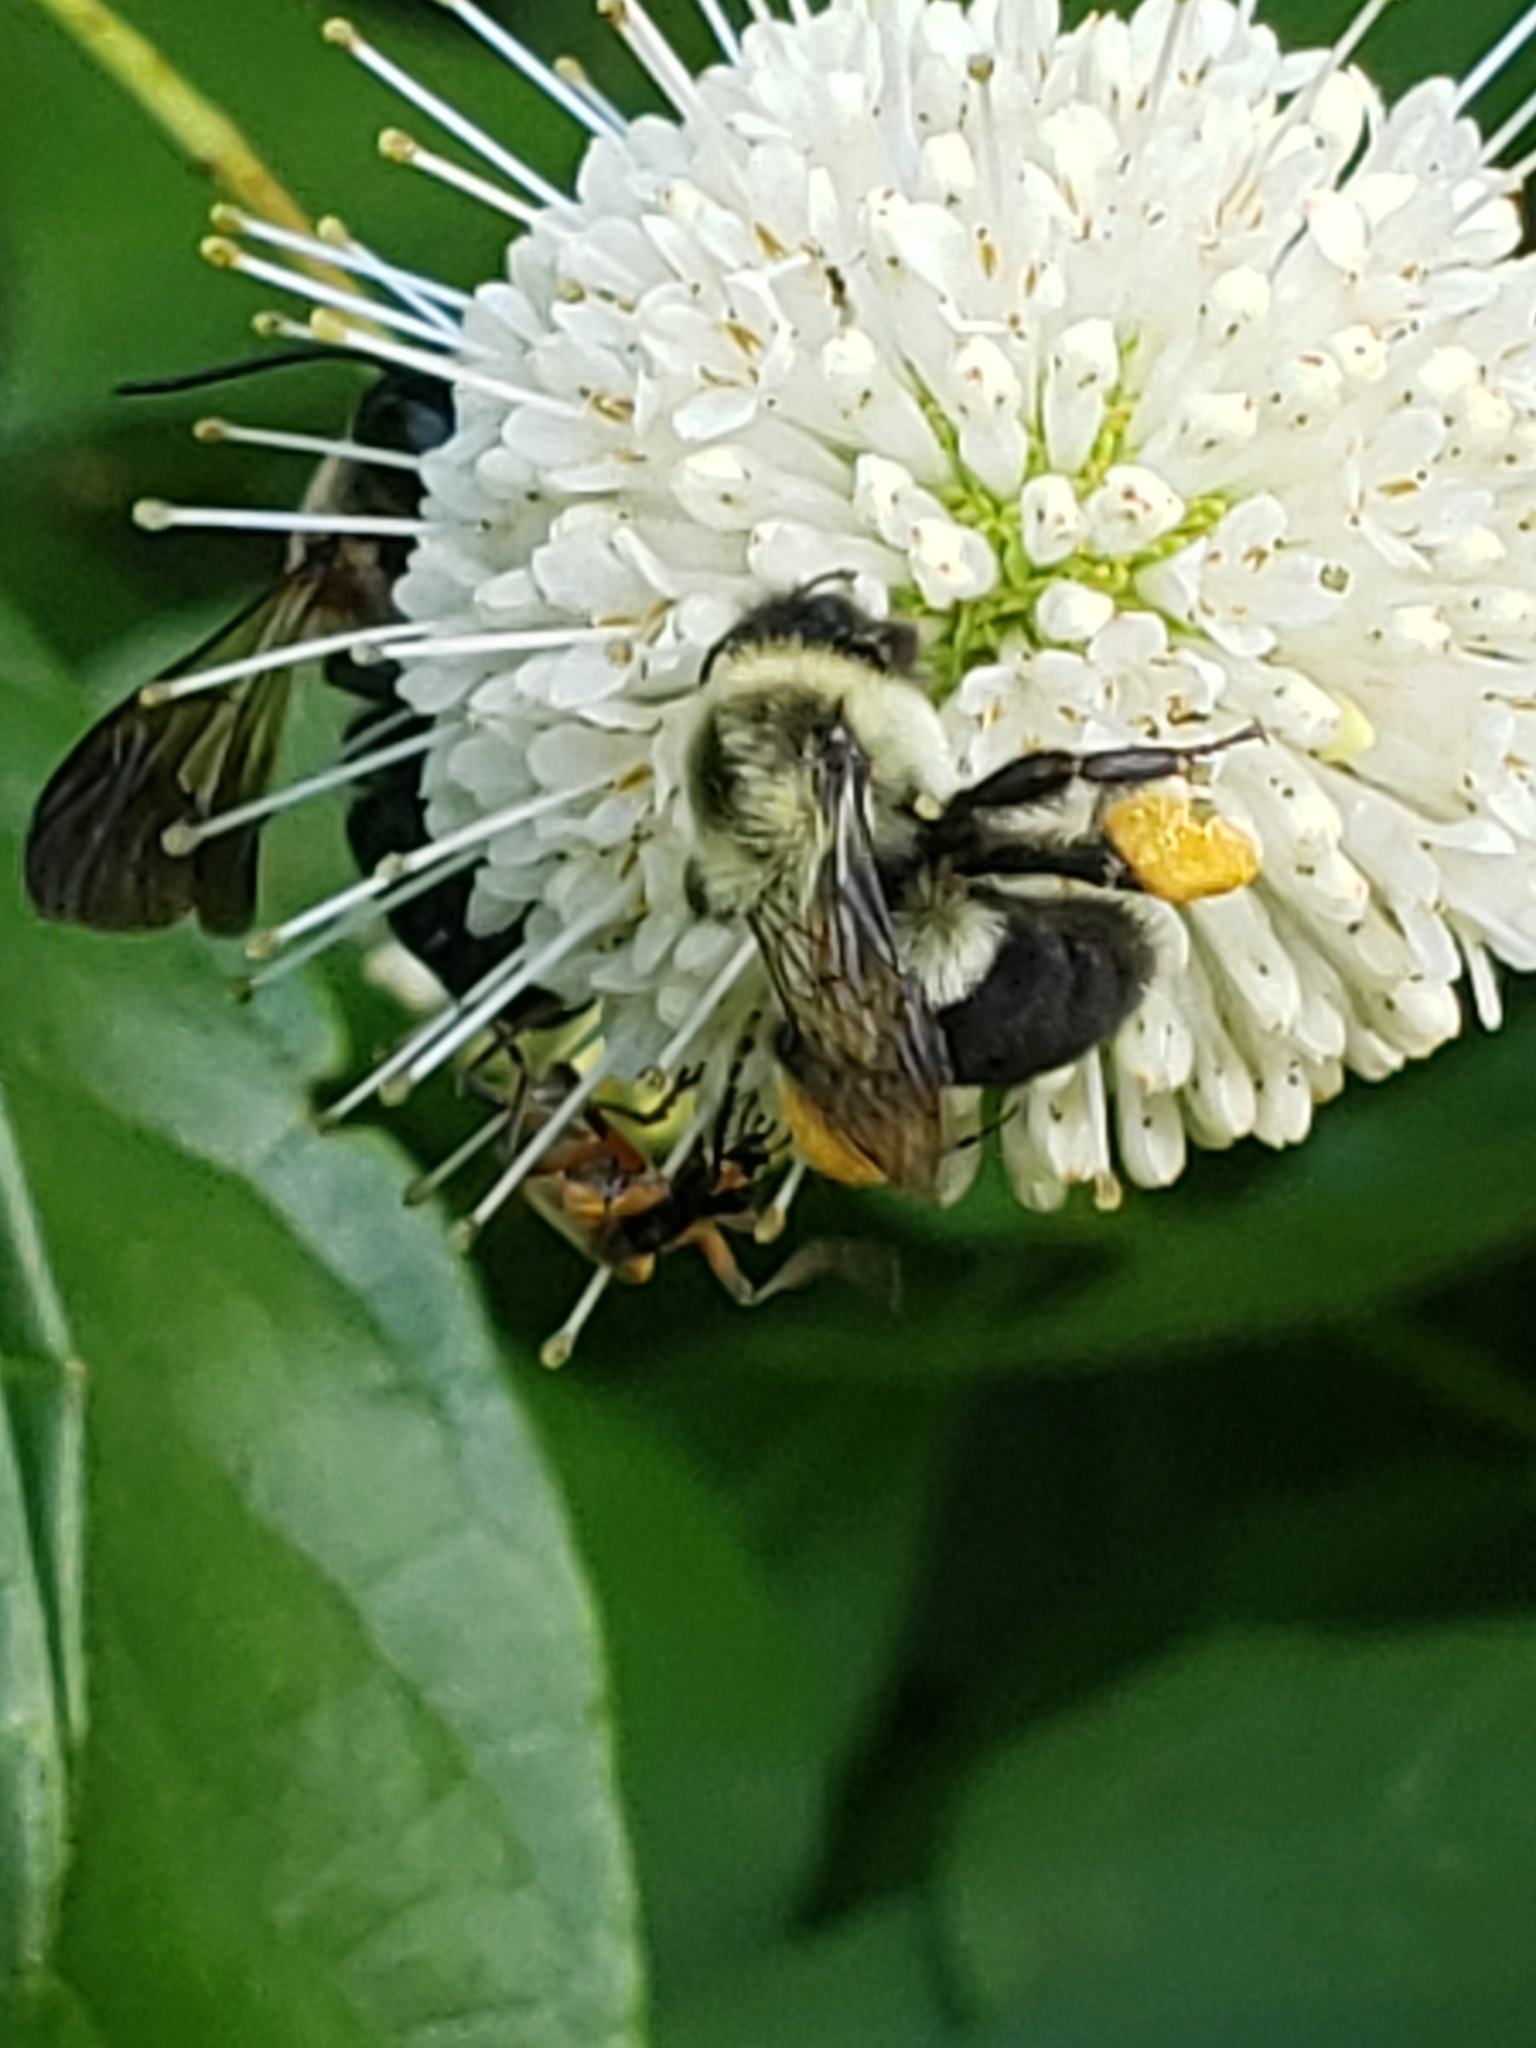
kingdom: Animalia
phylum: Arthropoda
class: Insecta
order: Hymenoptera
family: Apidae
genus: Bombus
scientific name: Bombus impatiens
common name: Common eastern bumble bee
